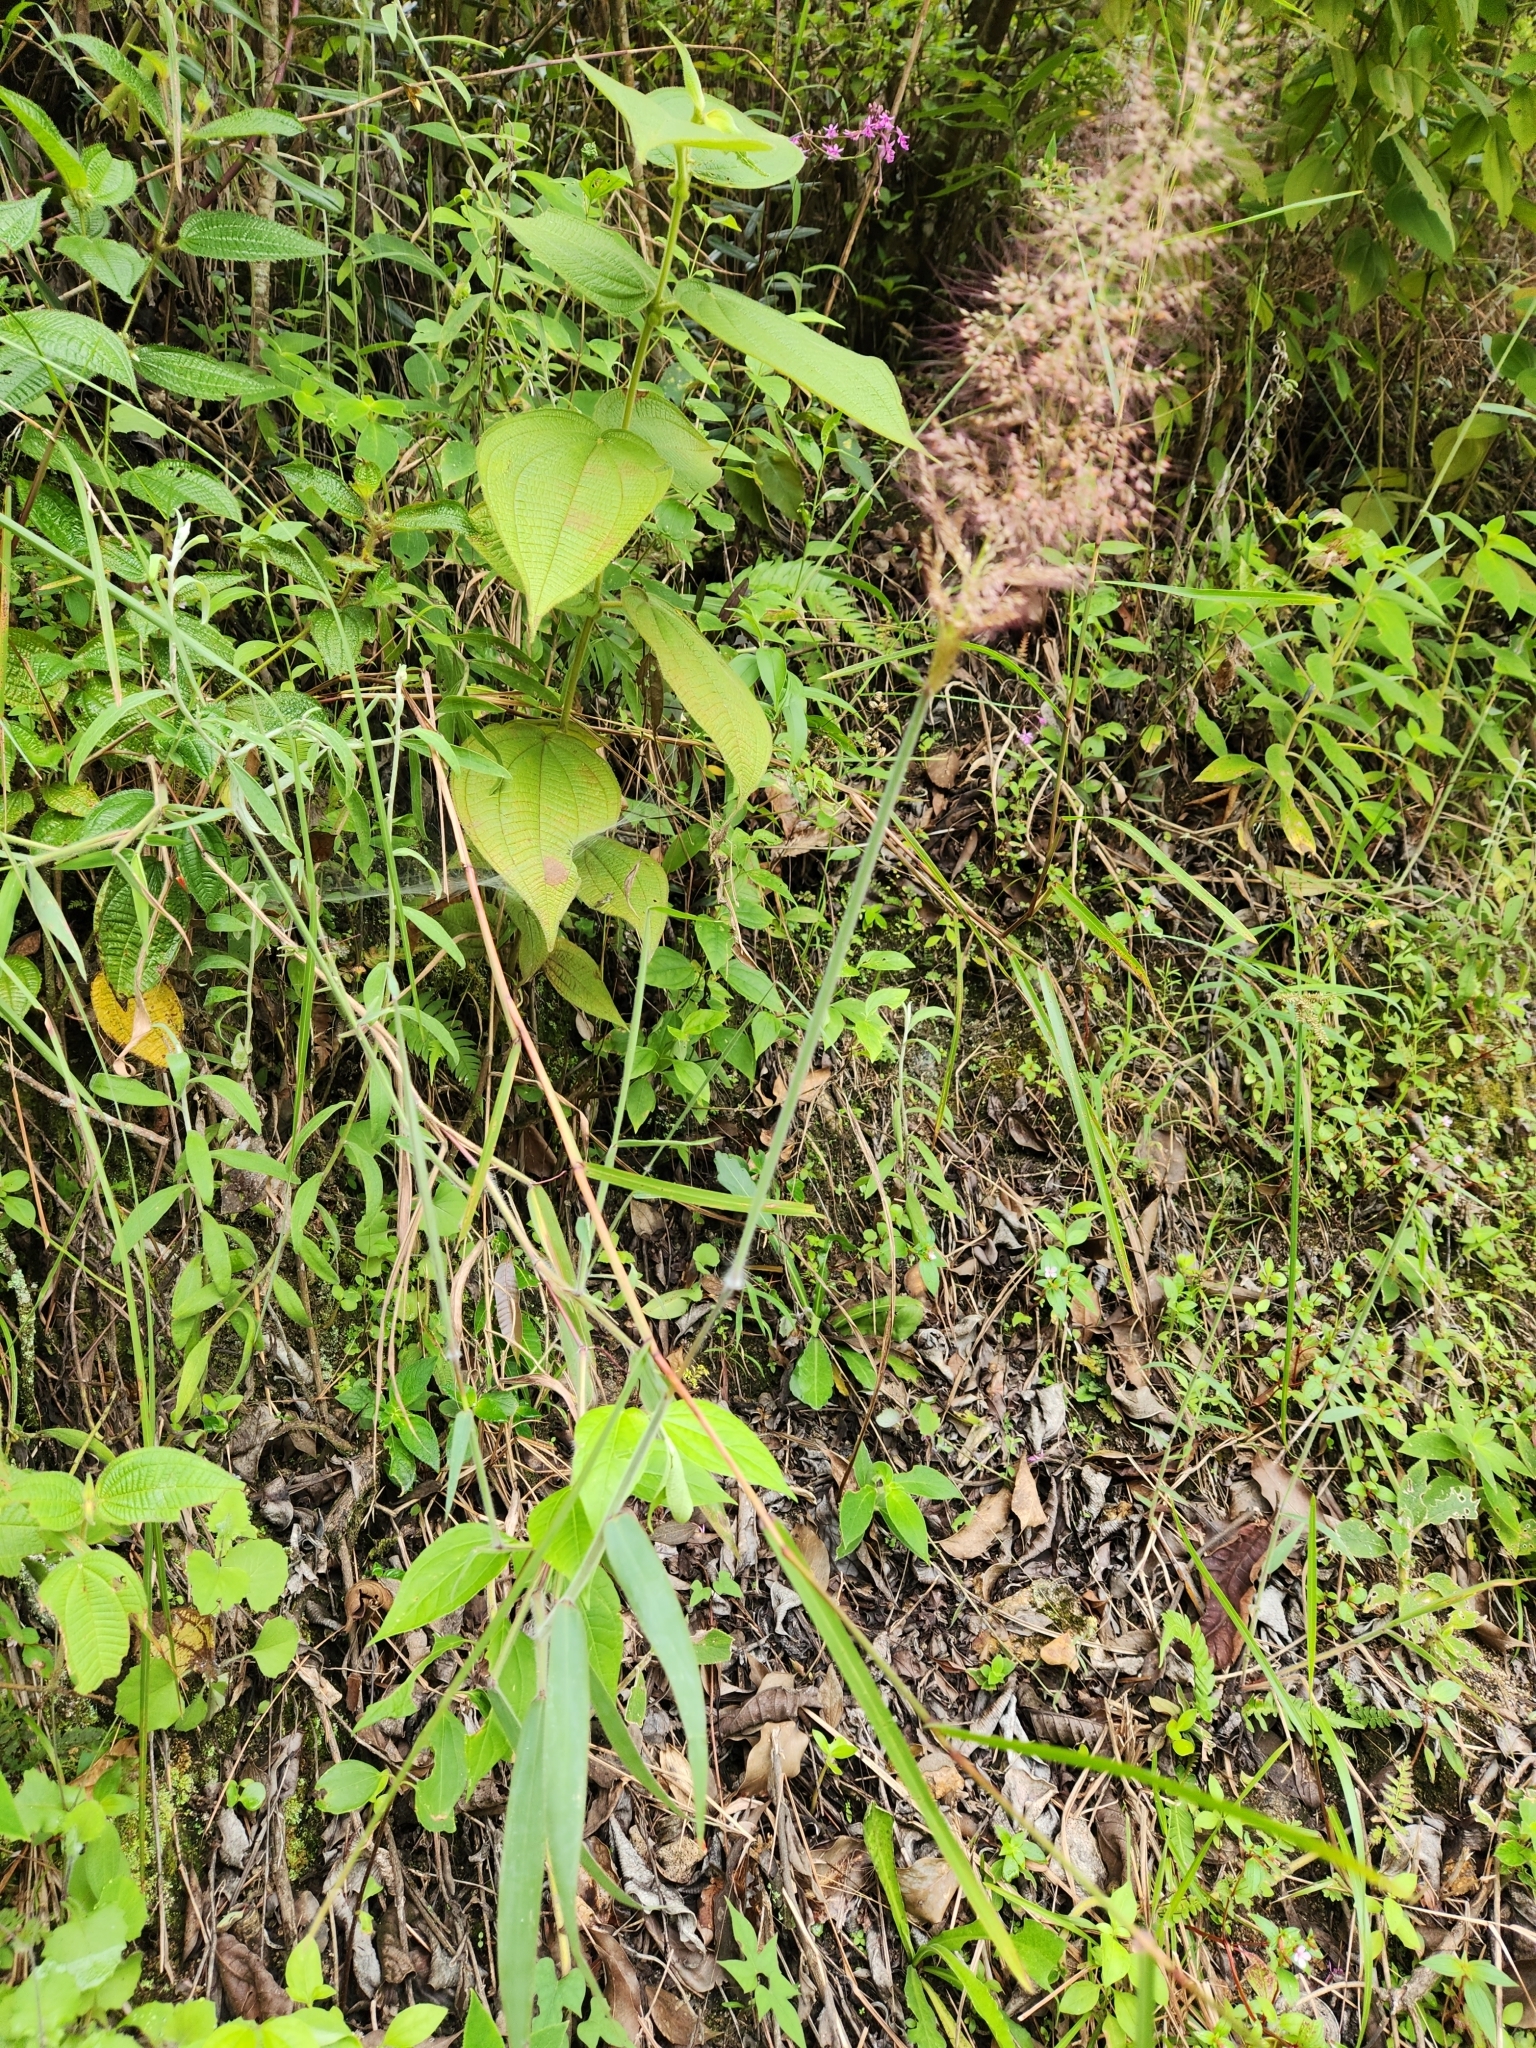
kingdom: Plantae
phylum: Tracheophyta
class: Liliopsida
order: Poales
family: Poaceae
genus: Melinis
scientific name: Melinis minutiflora
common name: Molassesgrass
